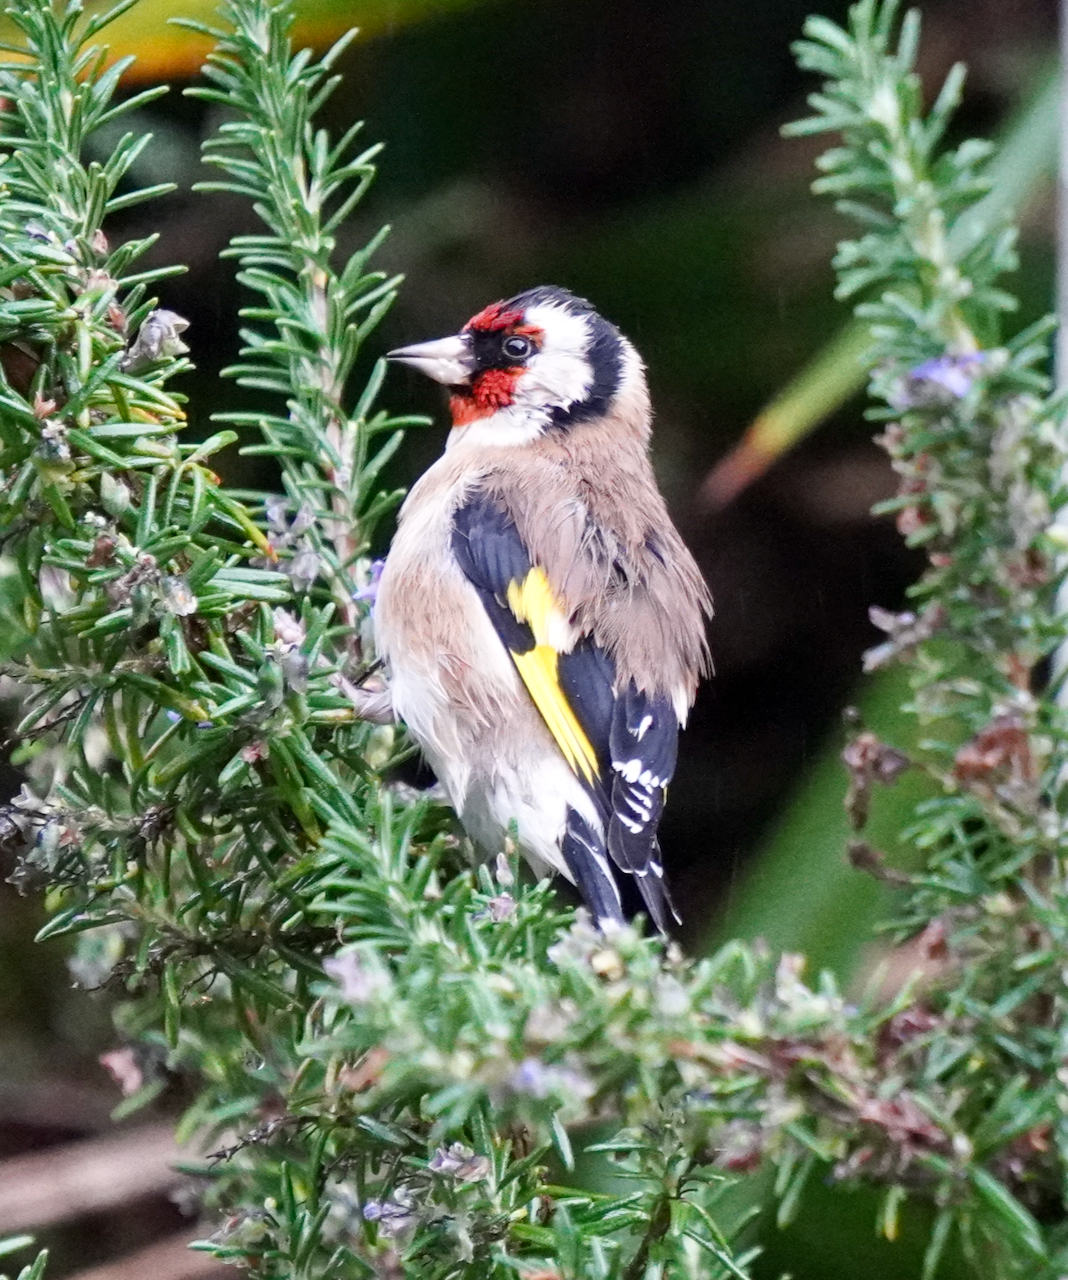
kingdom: Animalia
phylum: Chordata
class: Aves
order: Passeriformes
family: Fringillidae
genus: Carduelis
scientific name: Carduelis carduelis
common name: European goldfinch
